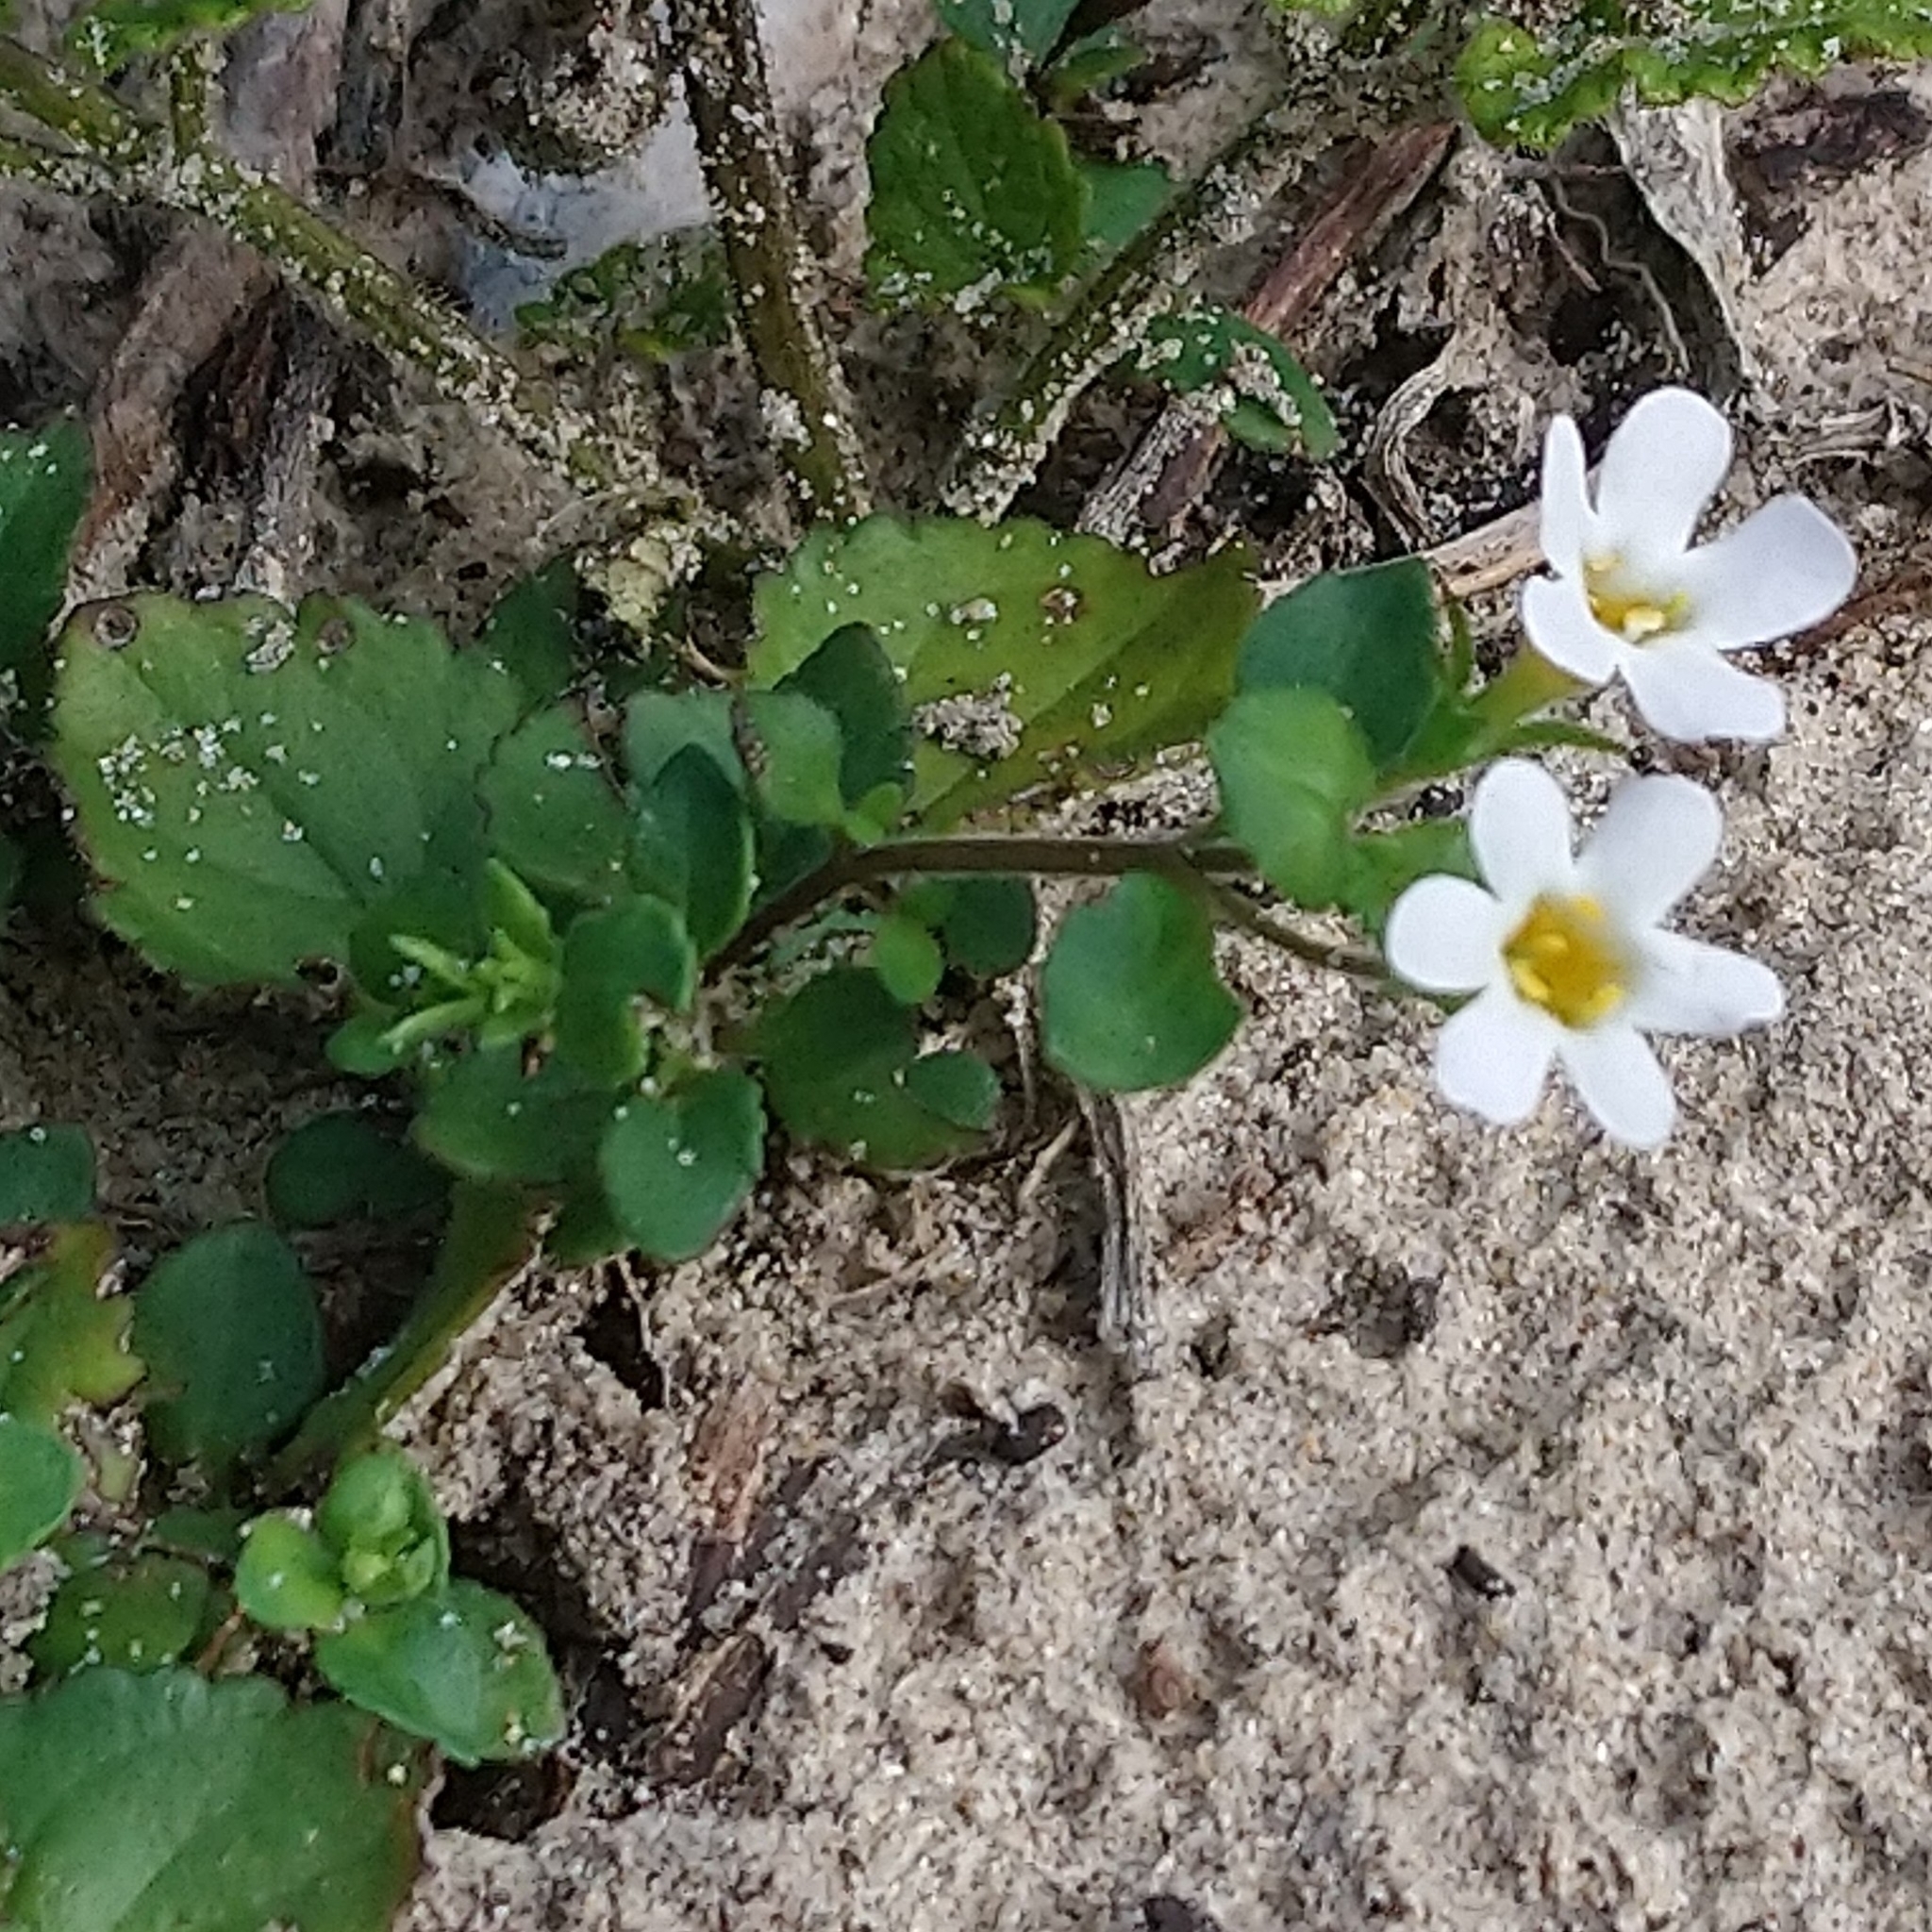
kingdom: Plantae
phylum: Tracheophyta
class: Magnoliopsida
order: Lamiales
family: Scrophulariaceae
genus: Chaenostoma
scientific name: Chaenostoma cordatum
